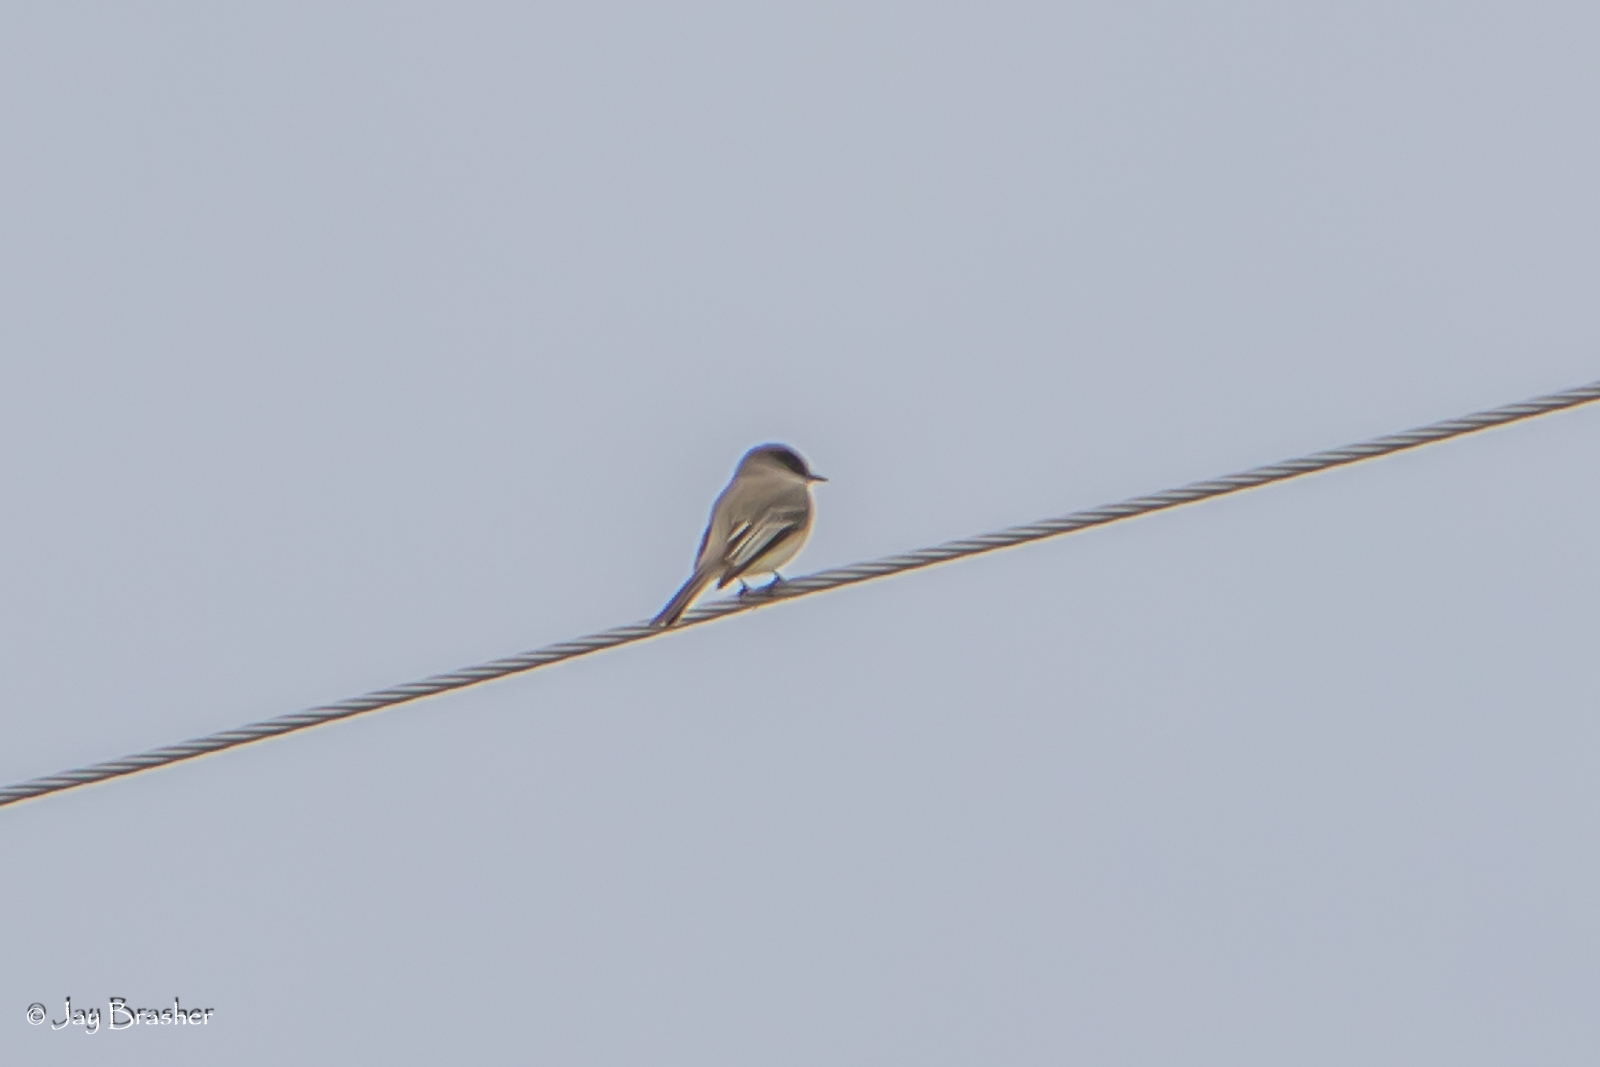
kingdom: Animalia
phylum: Chordata
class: Aves
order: Passeriformes
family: Tyrannidae
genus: Sayornis
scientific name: Sayornis phoebe
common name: Eastern phoebe
